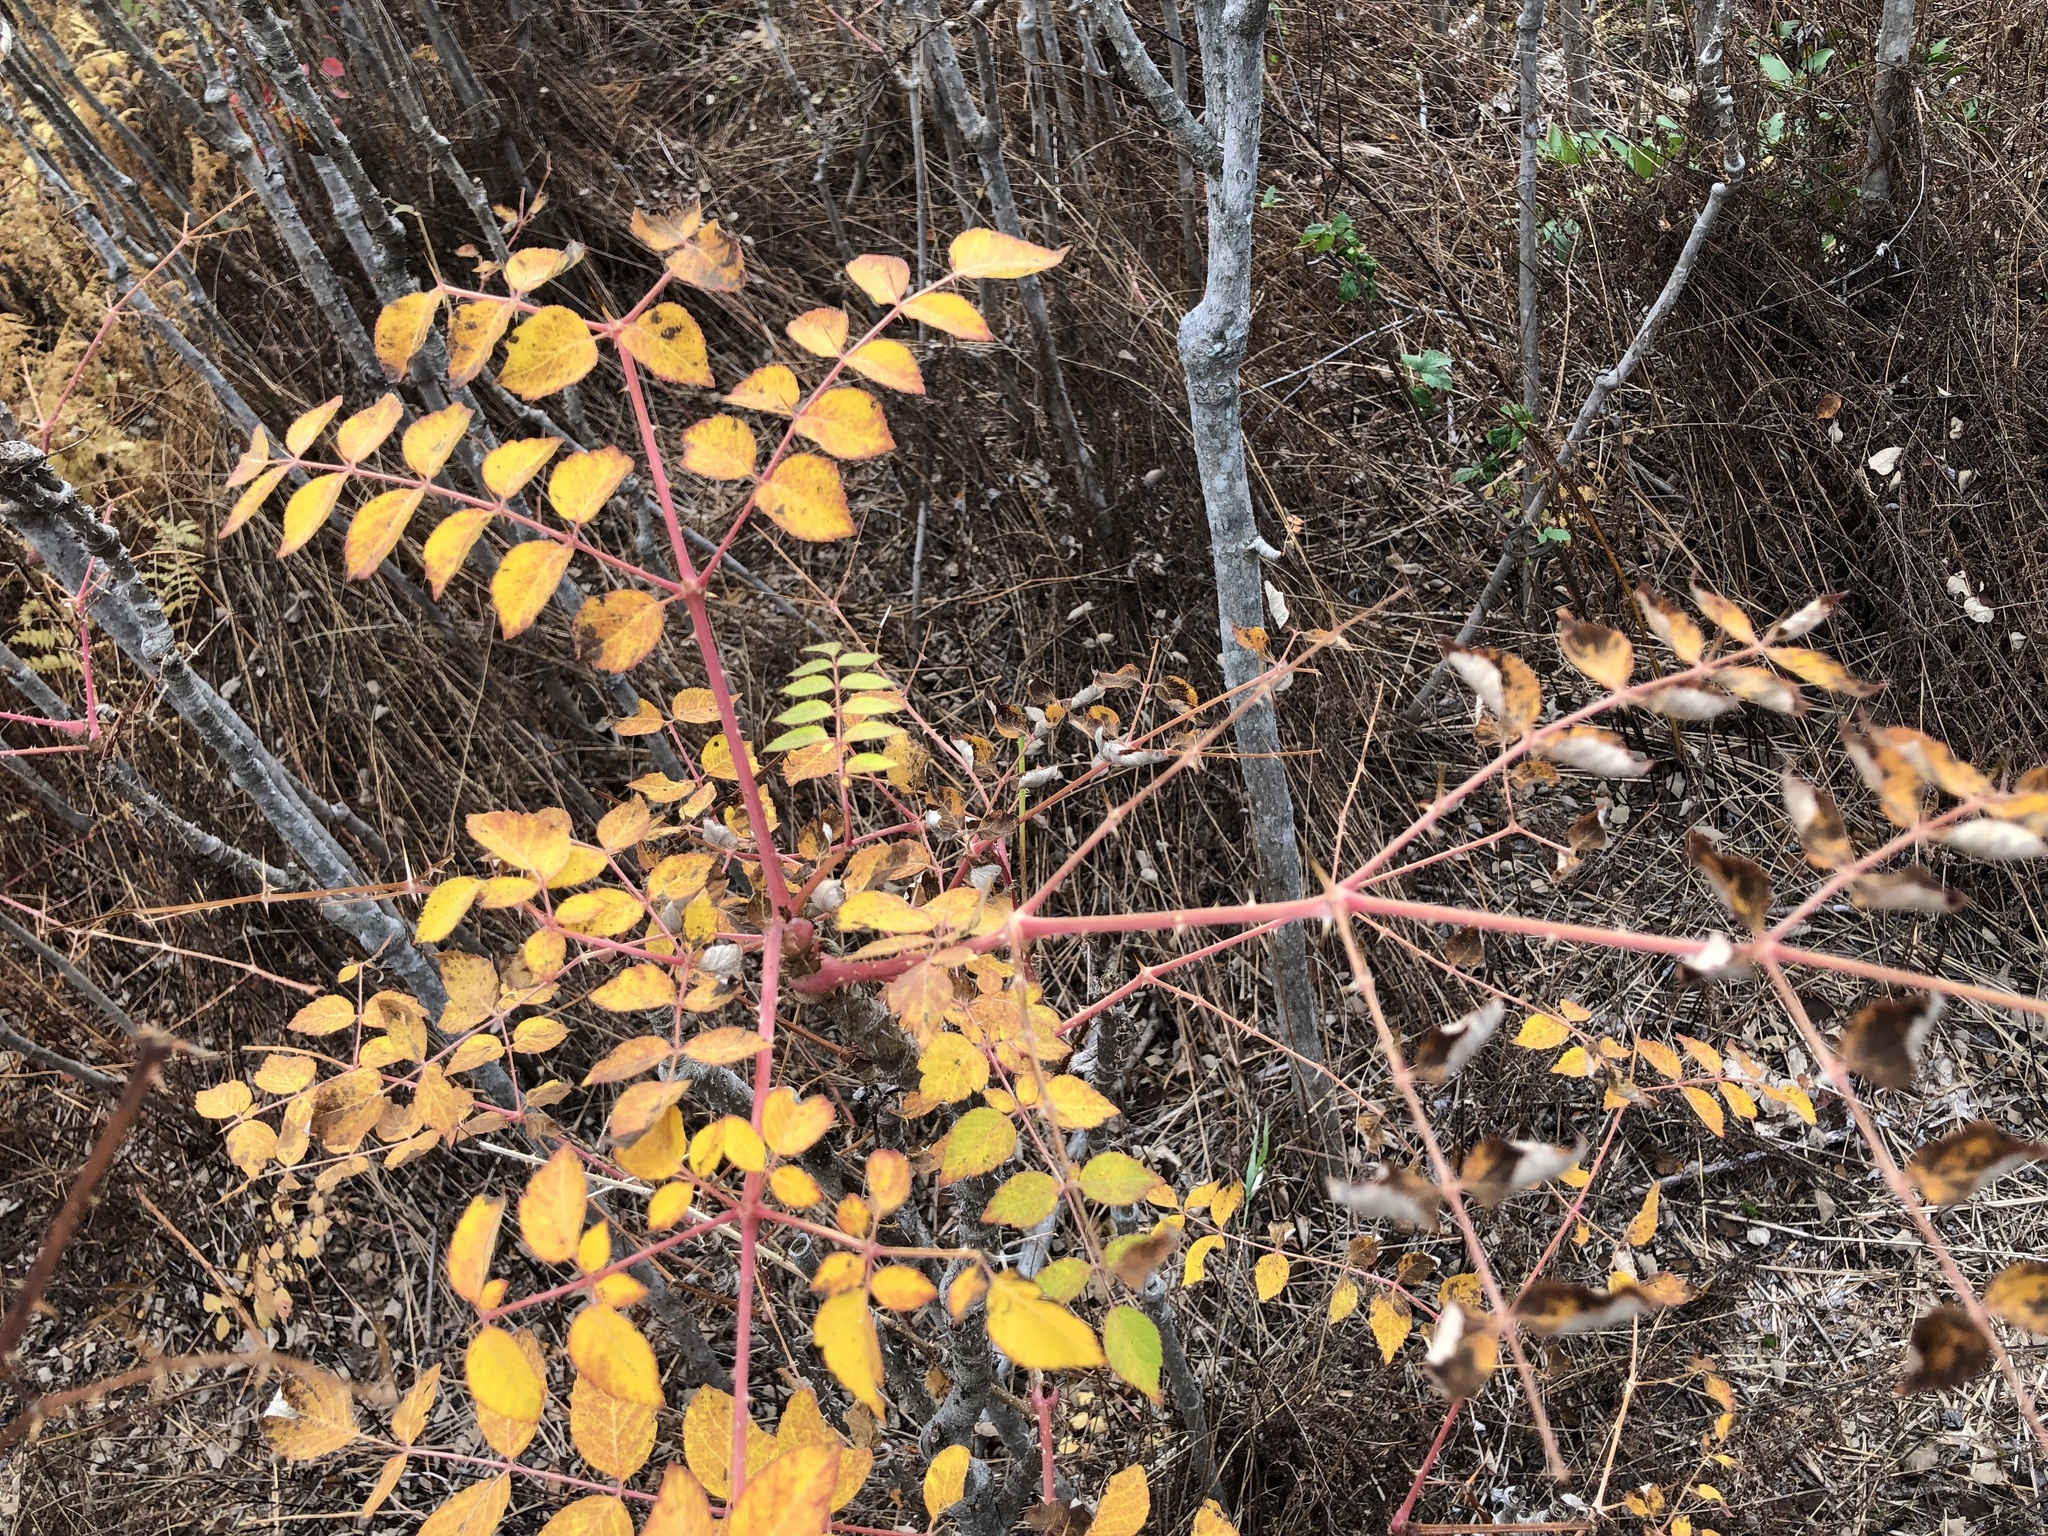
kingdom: Plantae
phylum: Tracheophyta
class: Magnoliopsida
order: Apiales
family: Araliaceae
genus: Aralia
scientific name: Aralia elata
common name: Japanese angelica-tree
